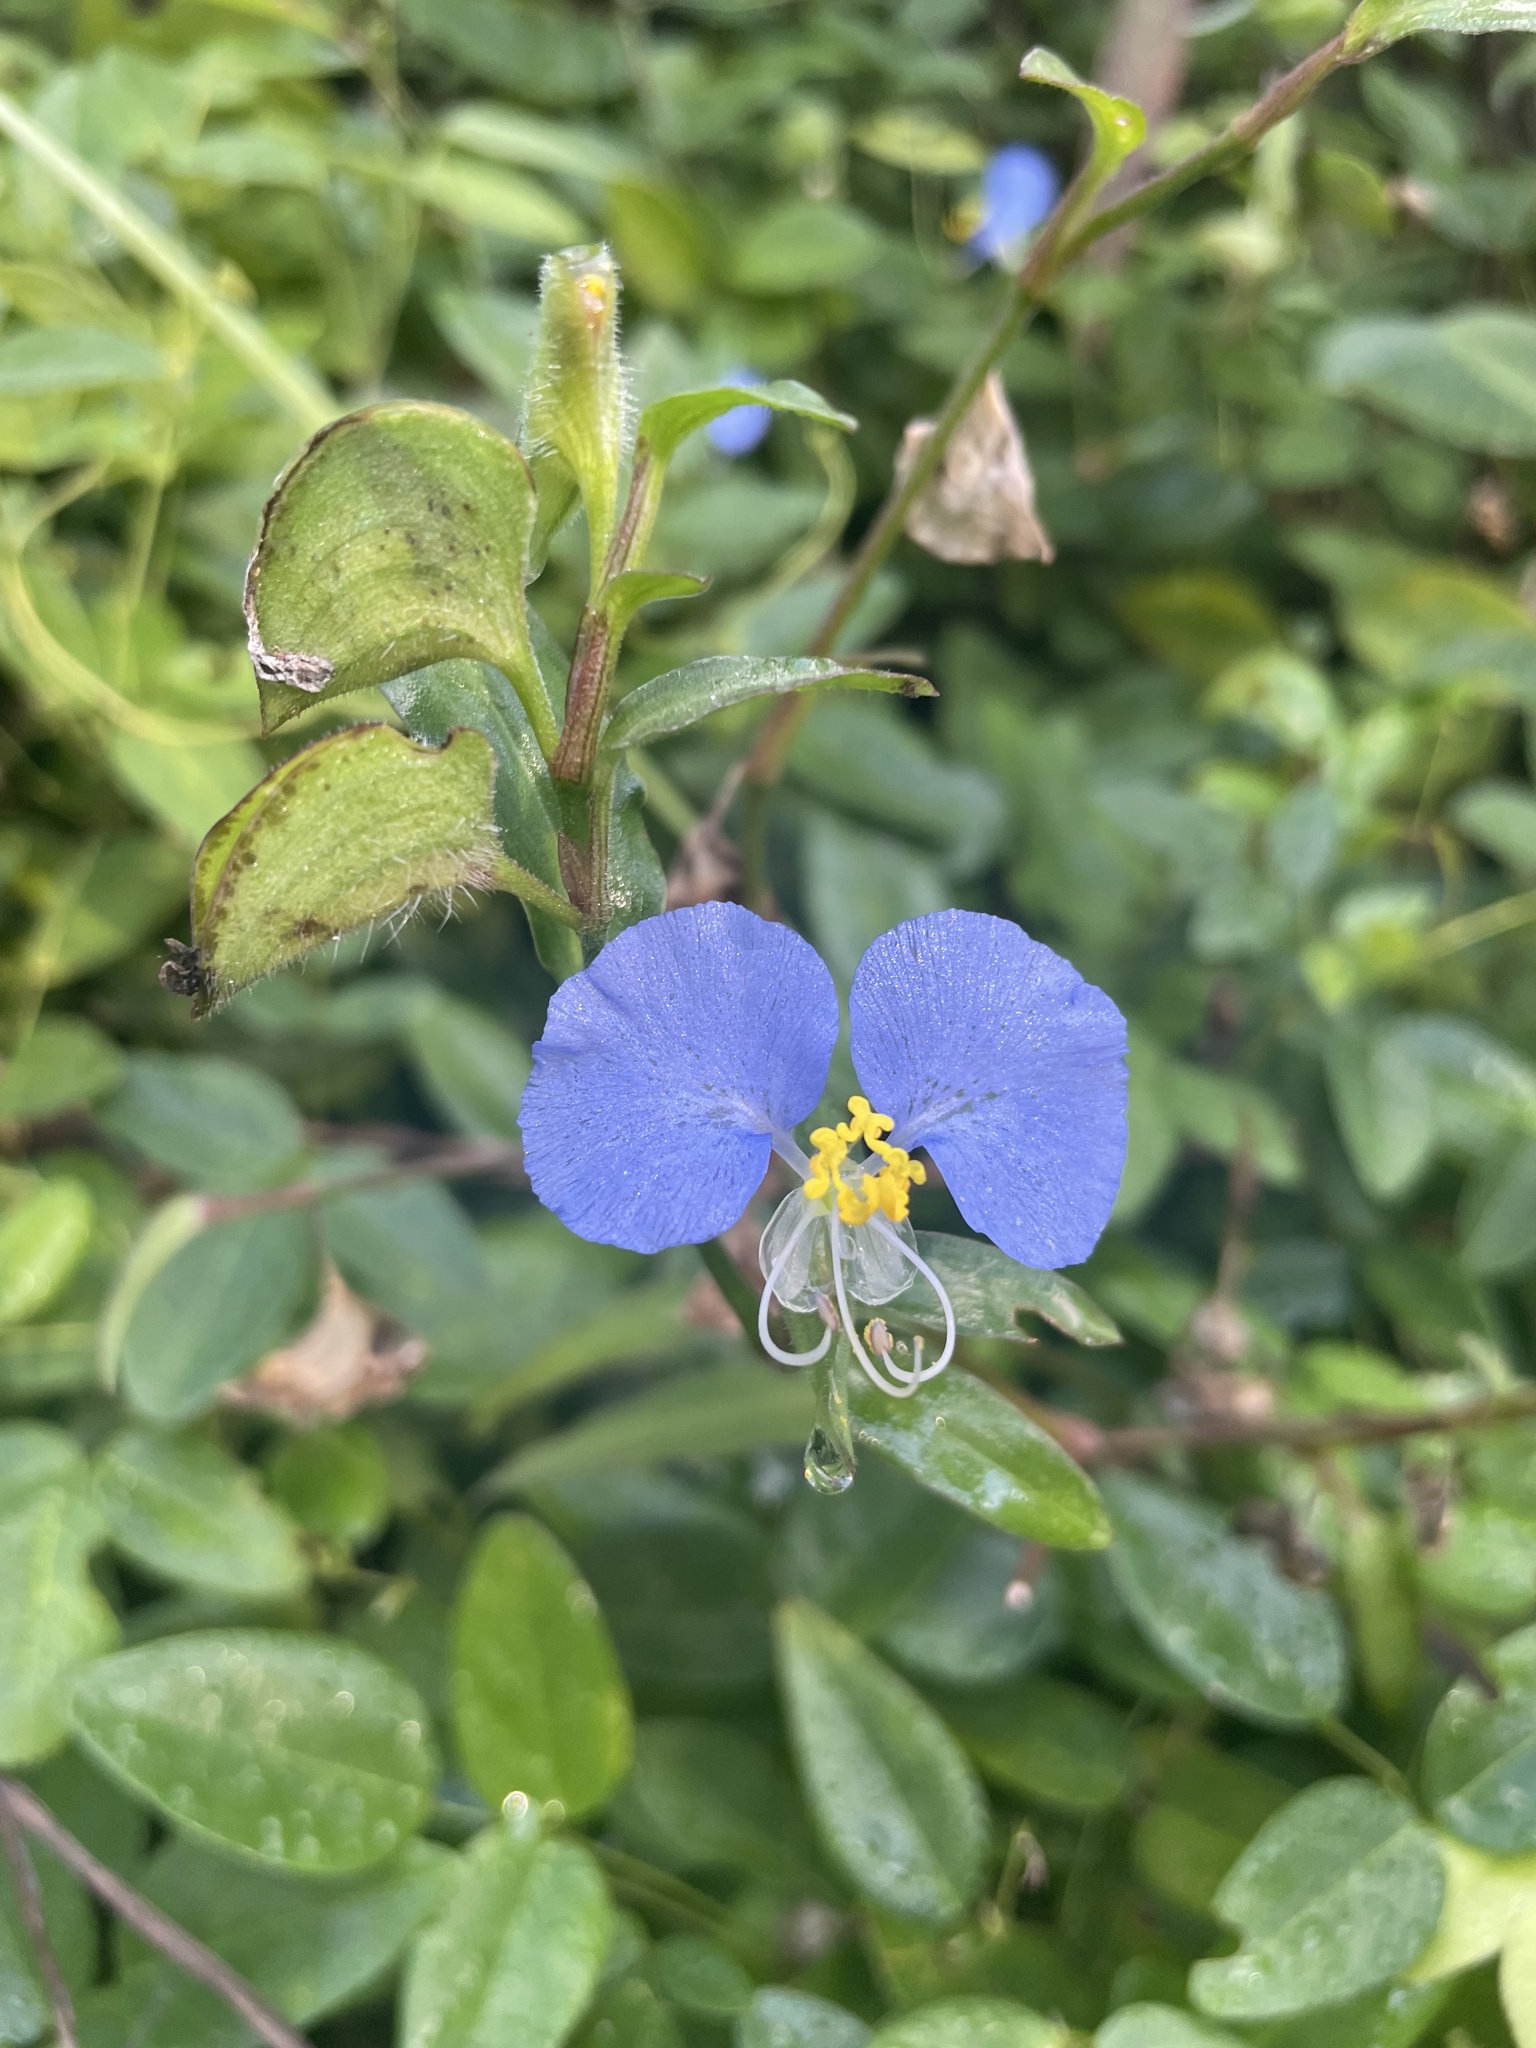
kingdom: Plantae
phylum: Tracheophyta
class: Liliopsida
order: Commelinales
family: Commelinaceae
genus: Commelina
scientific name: Commelina erecta
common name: Blousel blommetjie
